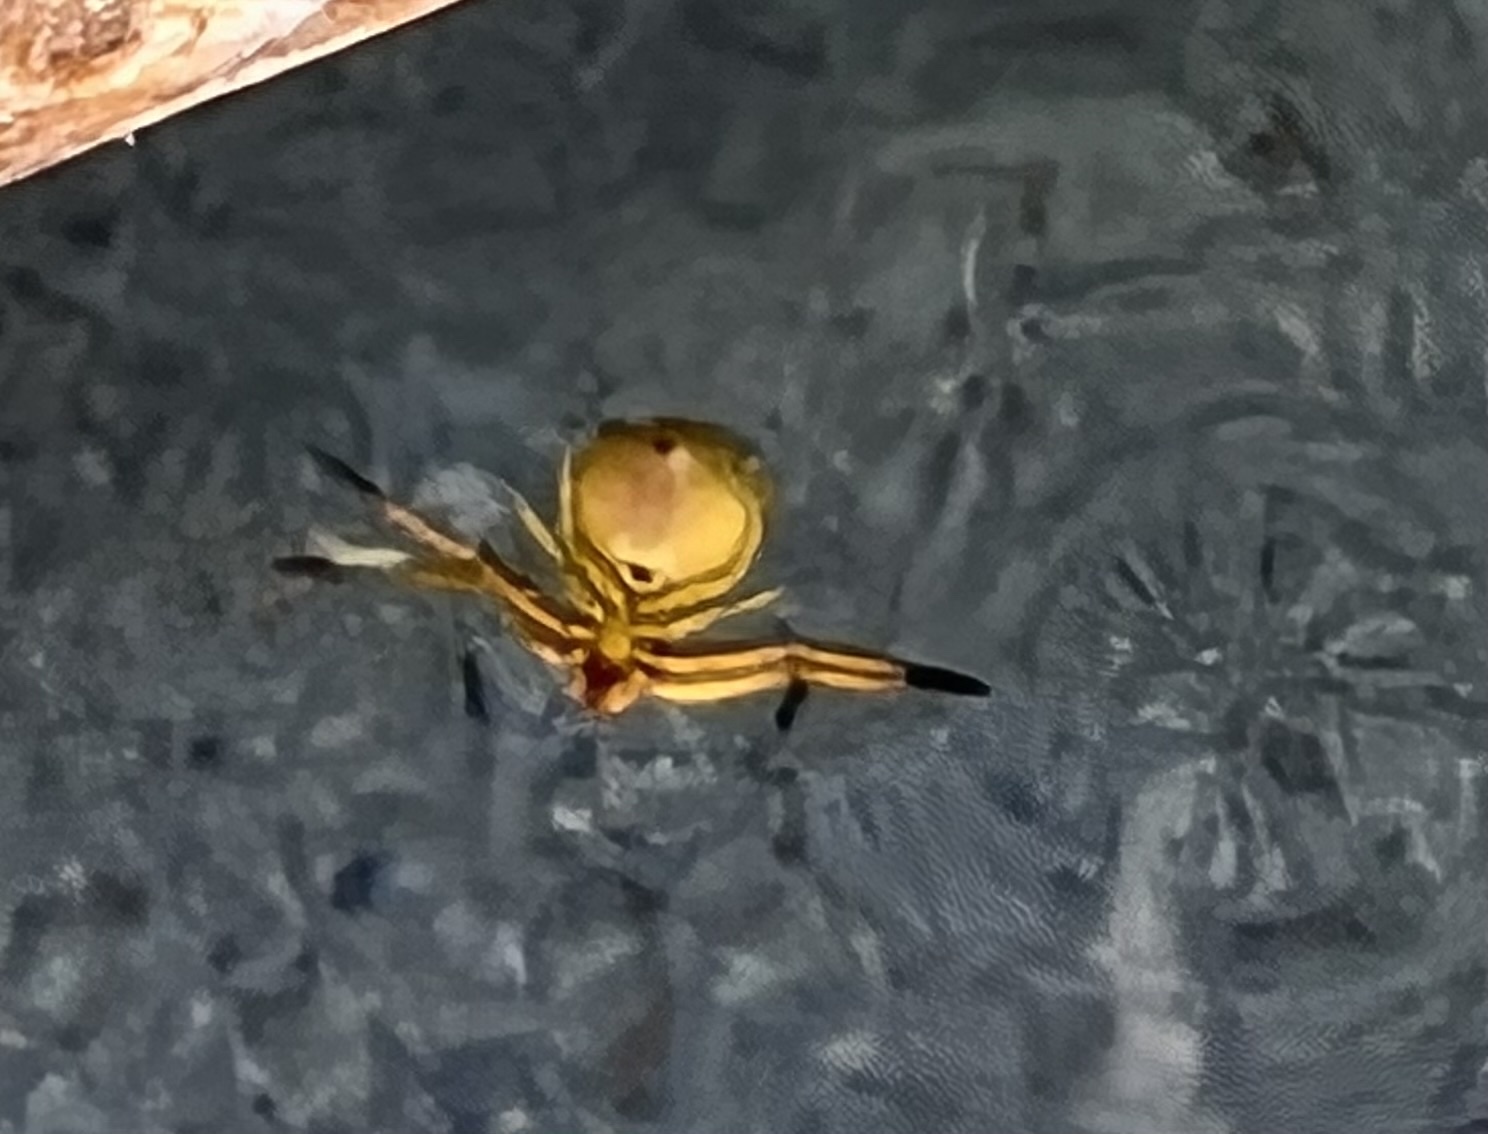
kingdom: Animalia
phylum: Arthropoda
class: Arachnida
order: Araneae
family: Thomisidae
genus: Misumenoides
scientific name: Misumenoides formosipes
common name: White-banded crab spider
